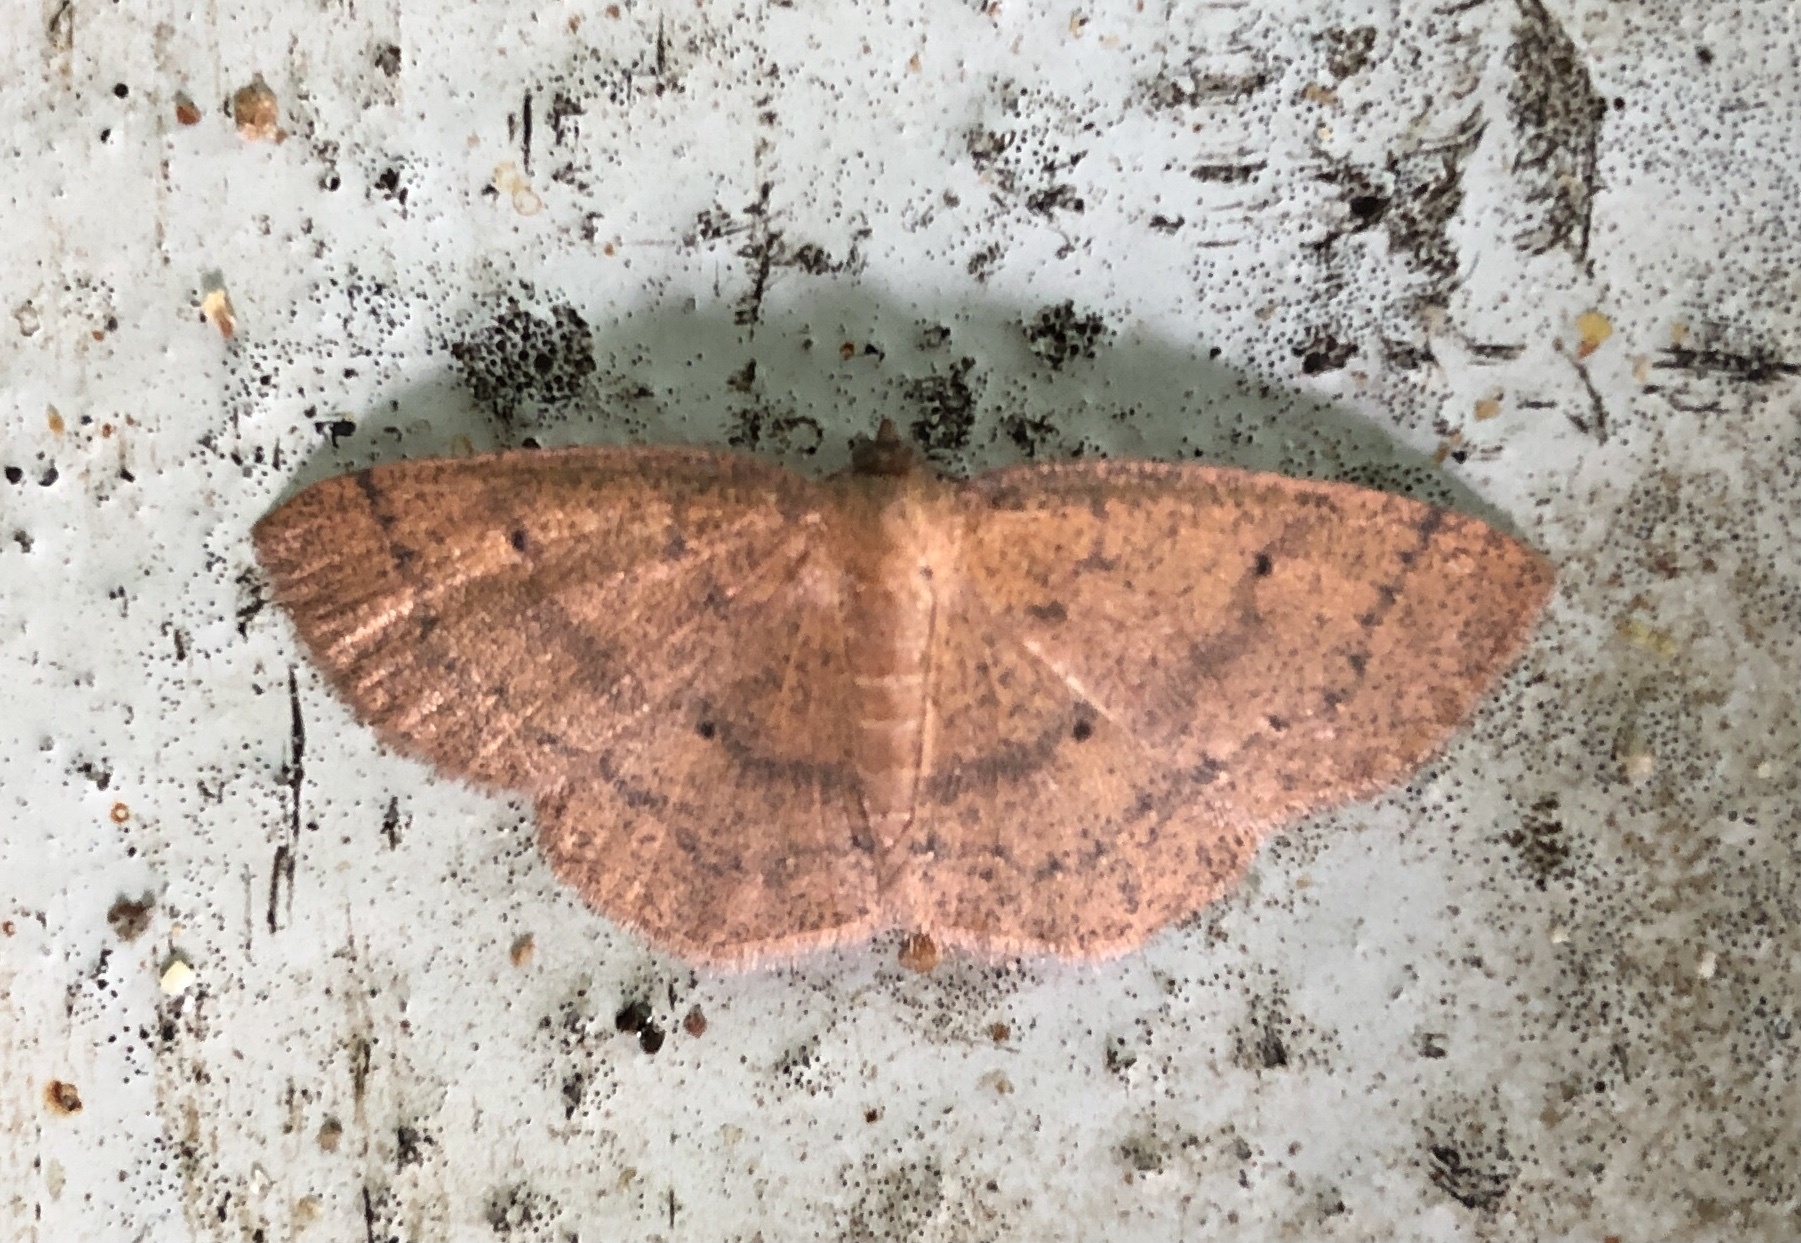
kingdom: Animalia
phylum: Arthropoda
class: Insecta
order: Lepidoptera
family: Geometridae
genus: Ilexia
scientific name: Ilexia intractata
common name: Black-dotted ruddy moth
